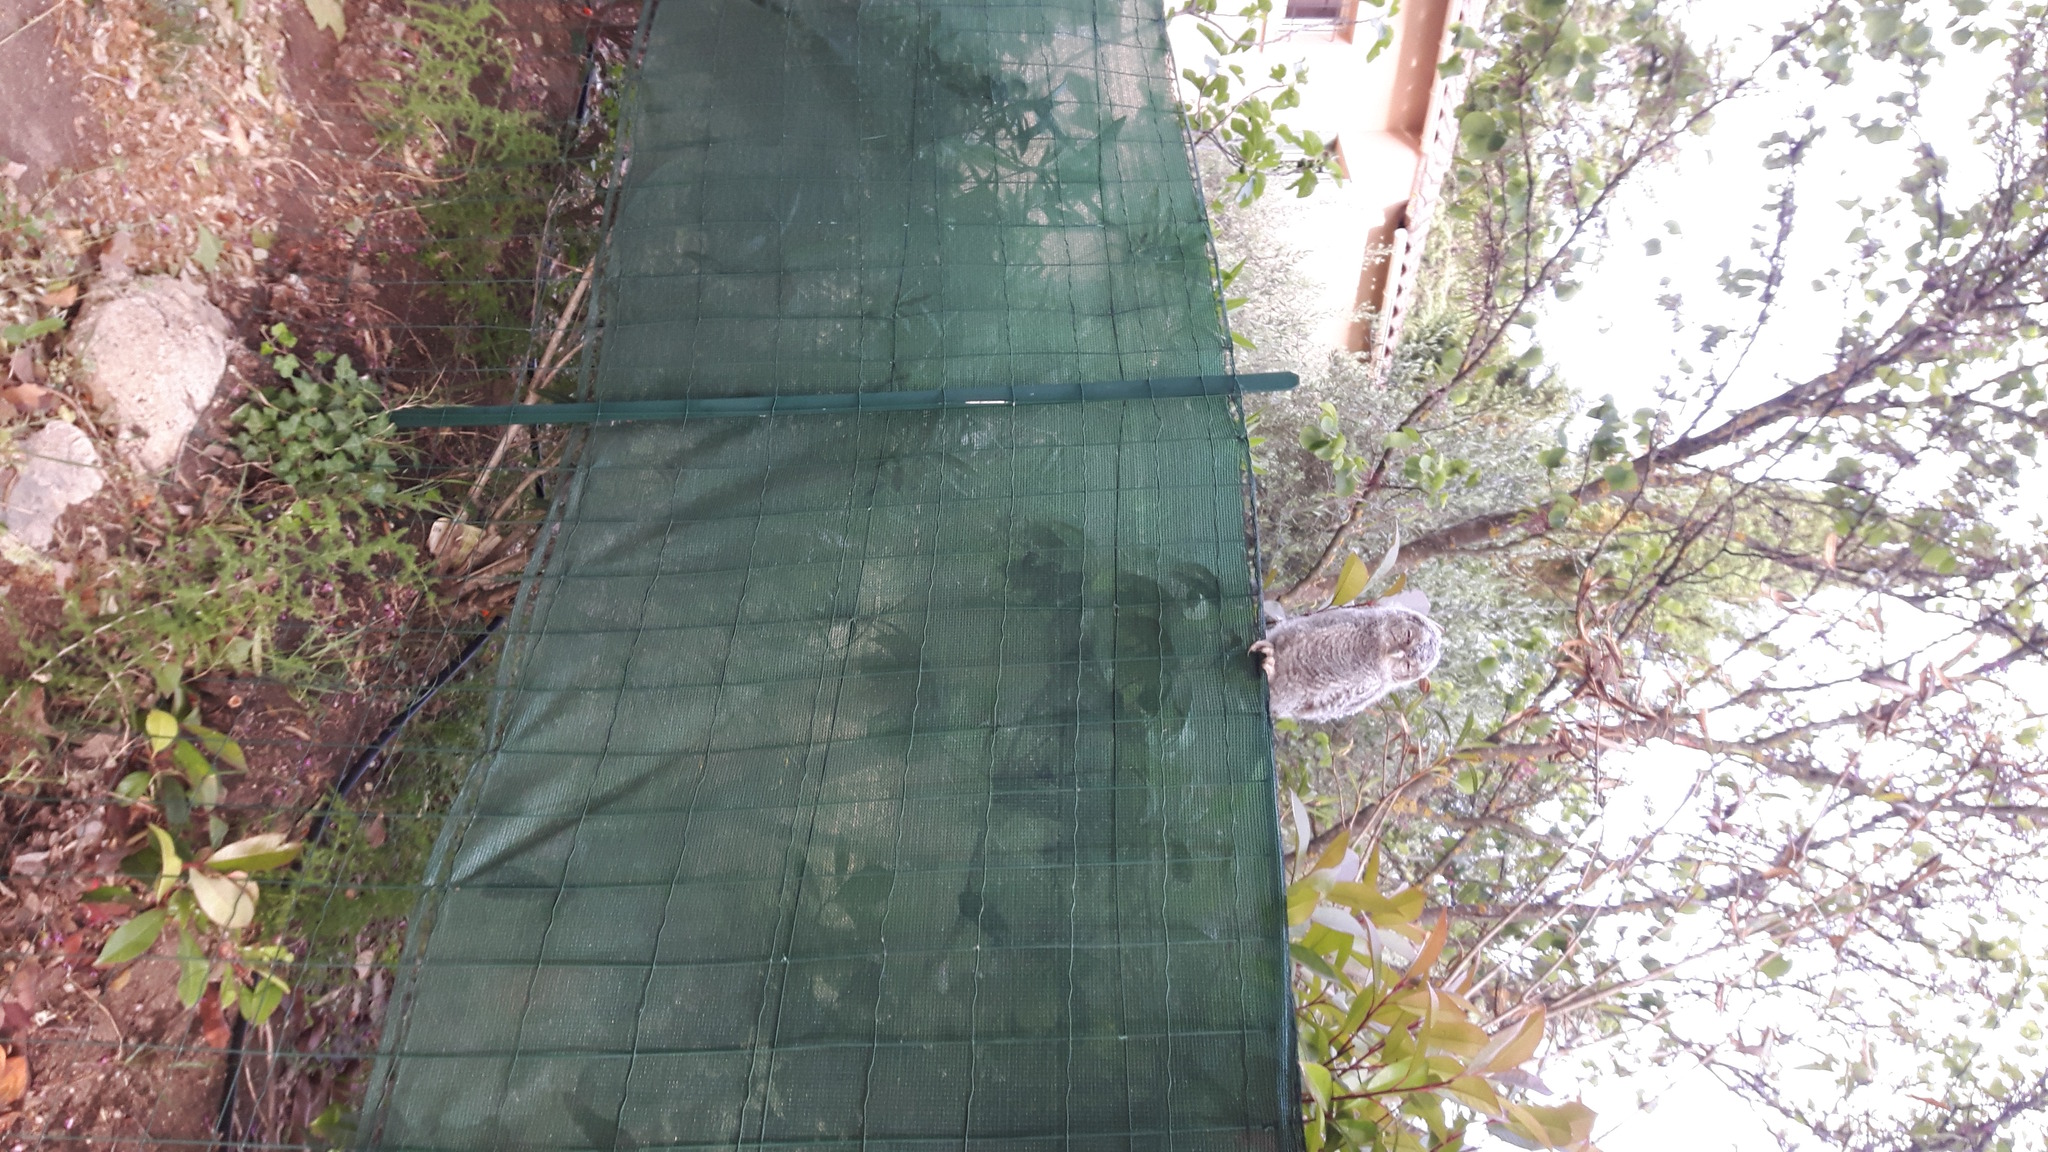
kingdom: Animalia
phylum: Chordata
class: Aves
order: Strigiformes
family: Strigidae
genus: Strix
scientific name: Strix aluco
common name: Tawny owl
